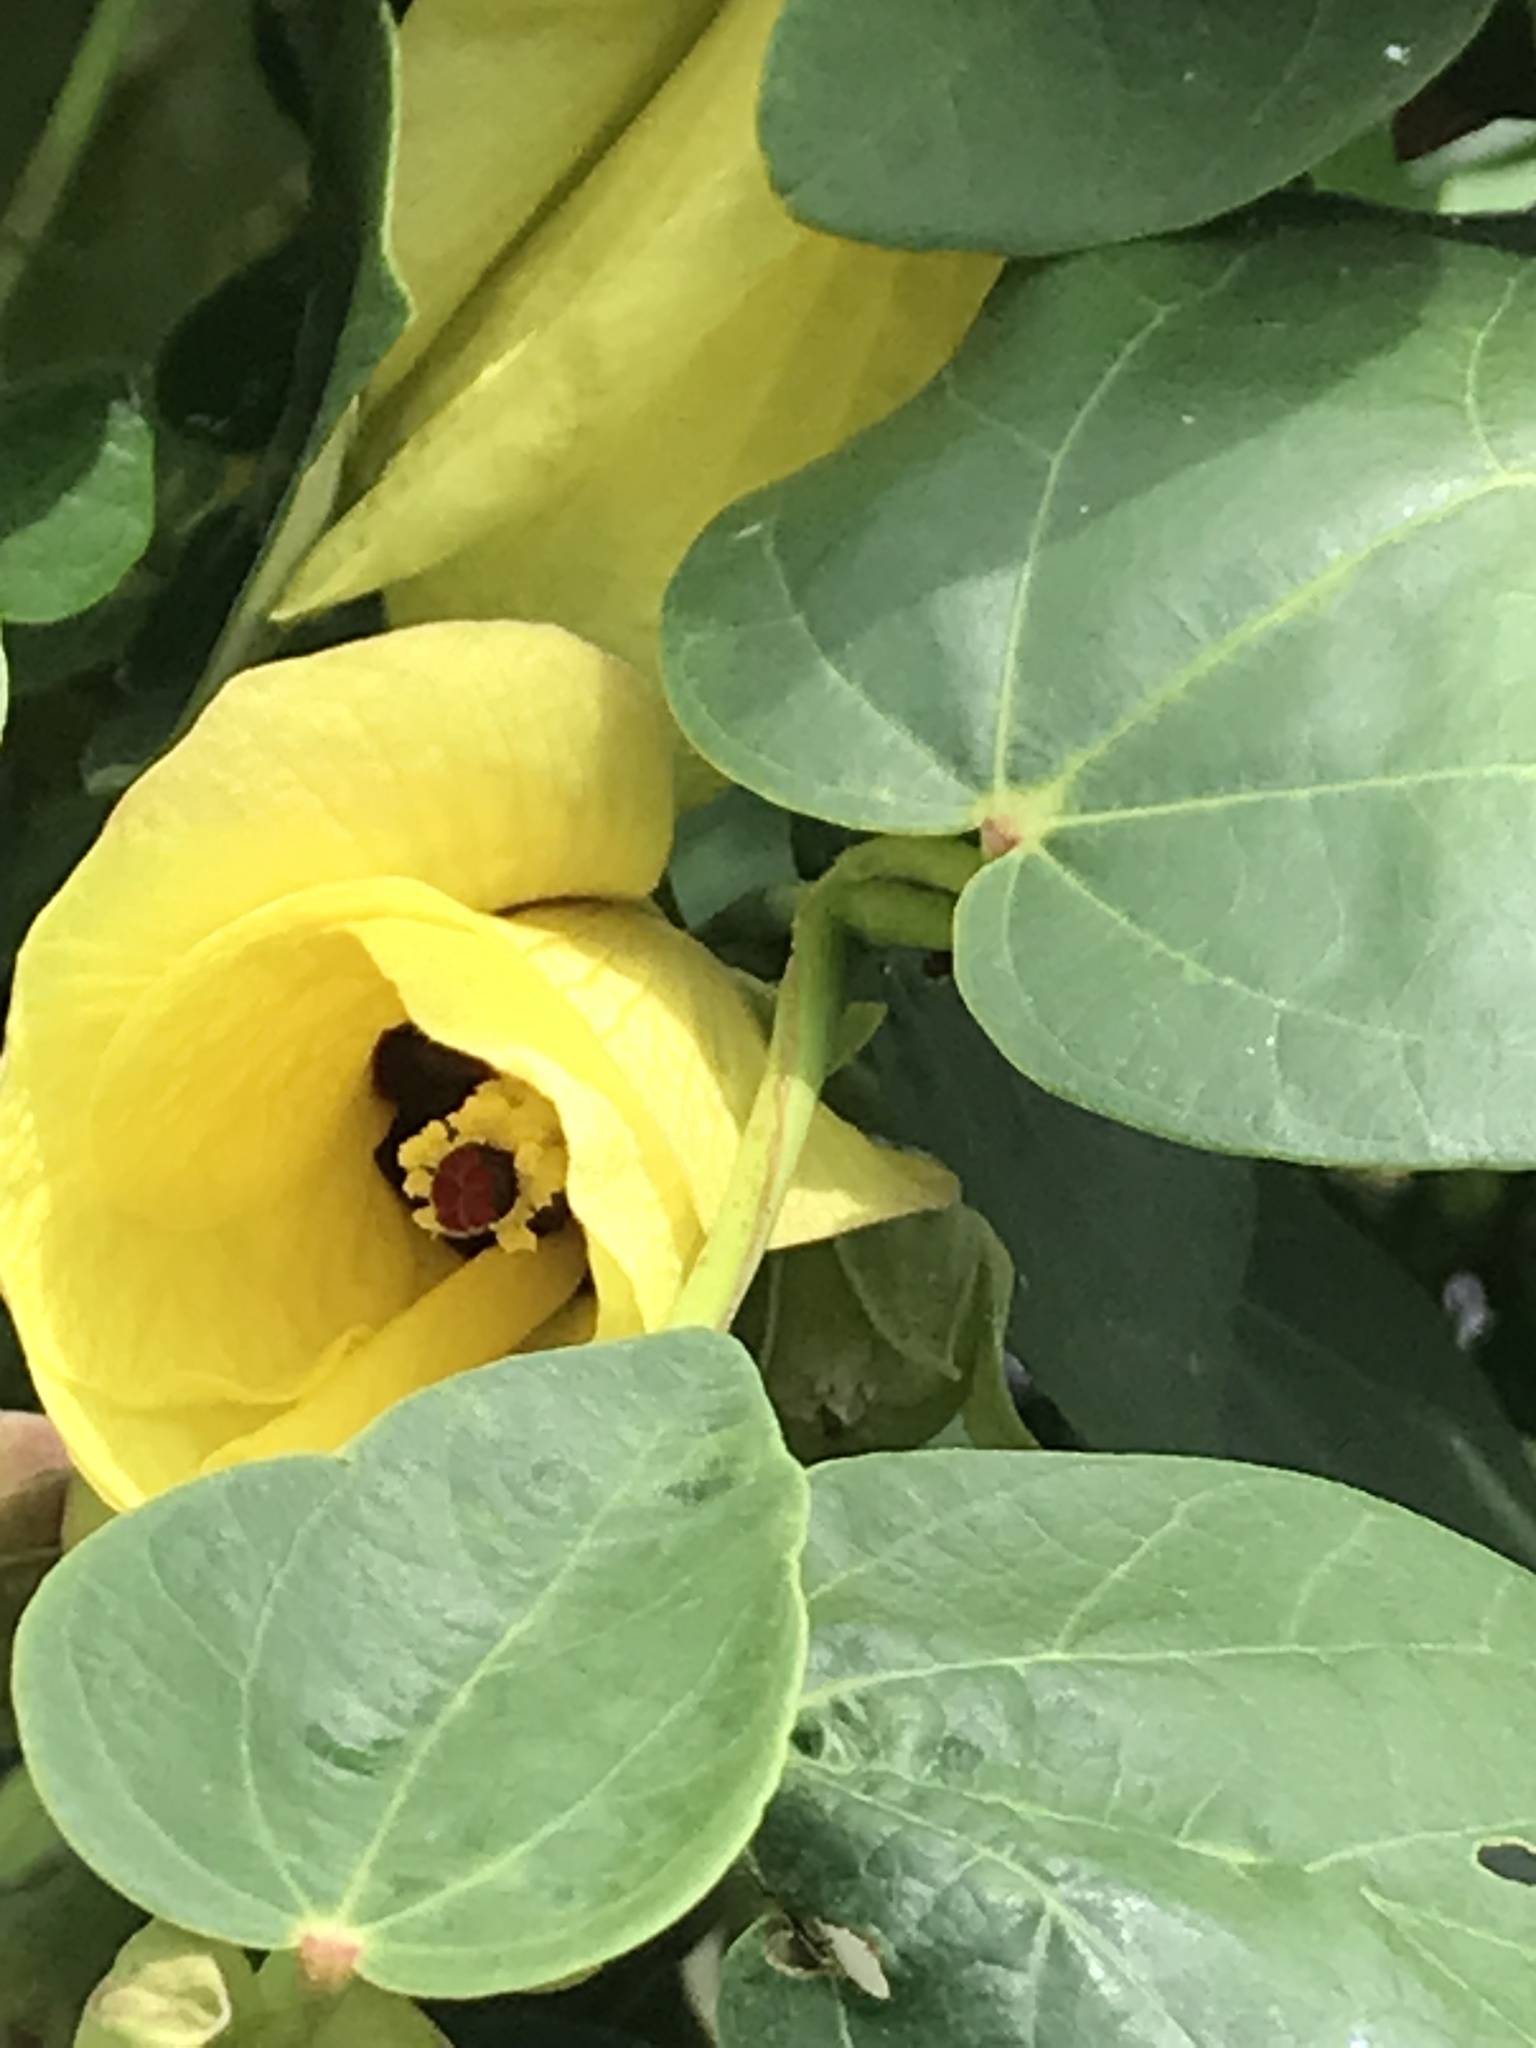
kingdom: Plantae
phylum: Tracheophyta
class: Magnoliopsida
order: Malvales
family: Malvaceae
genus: Talipariti
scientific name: Talipariti tiliaceum
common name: Sea hibiscus
